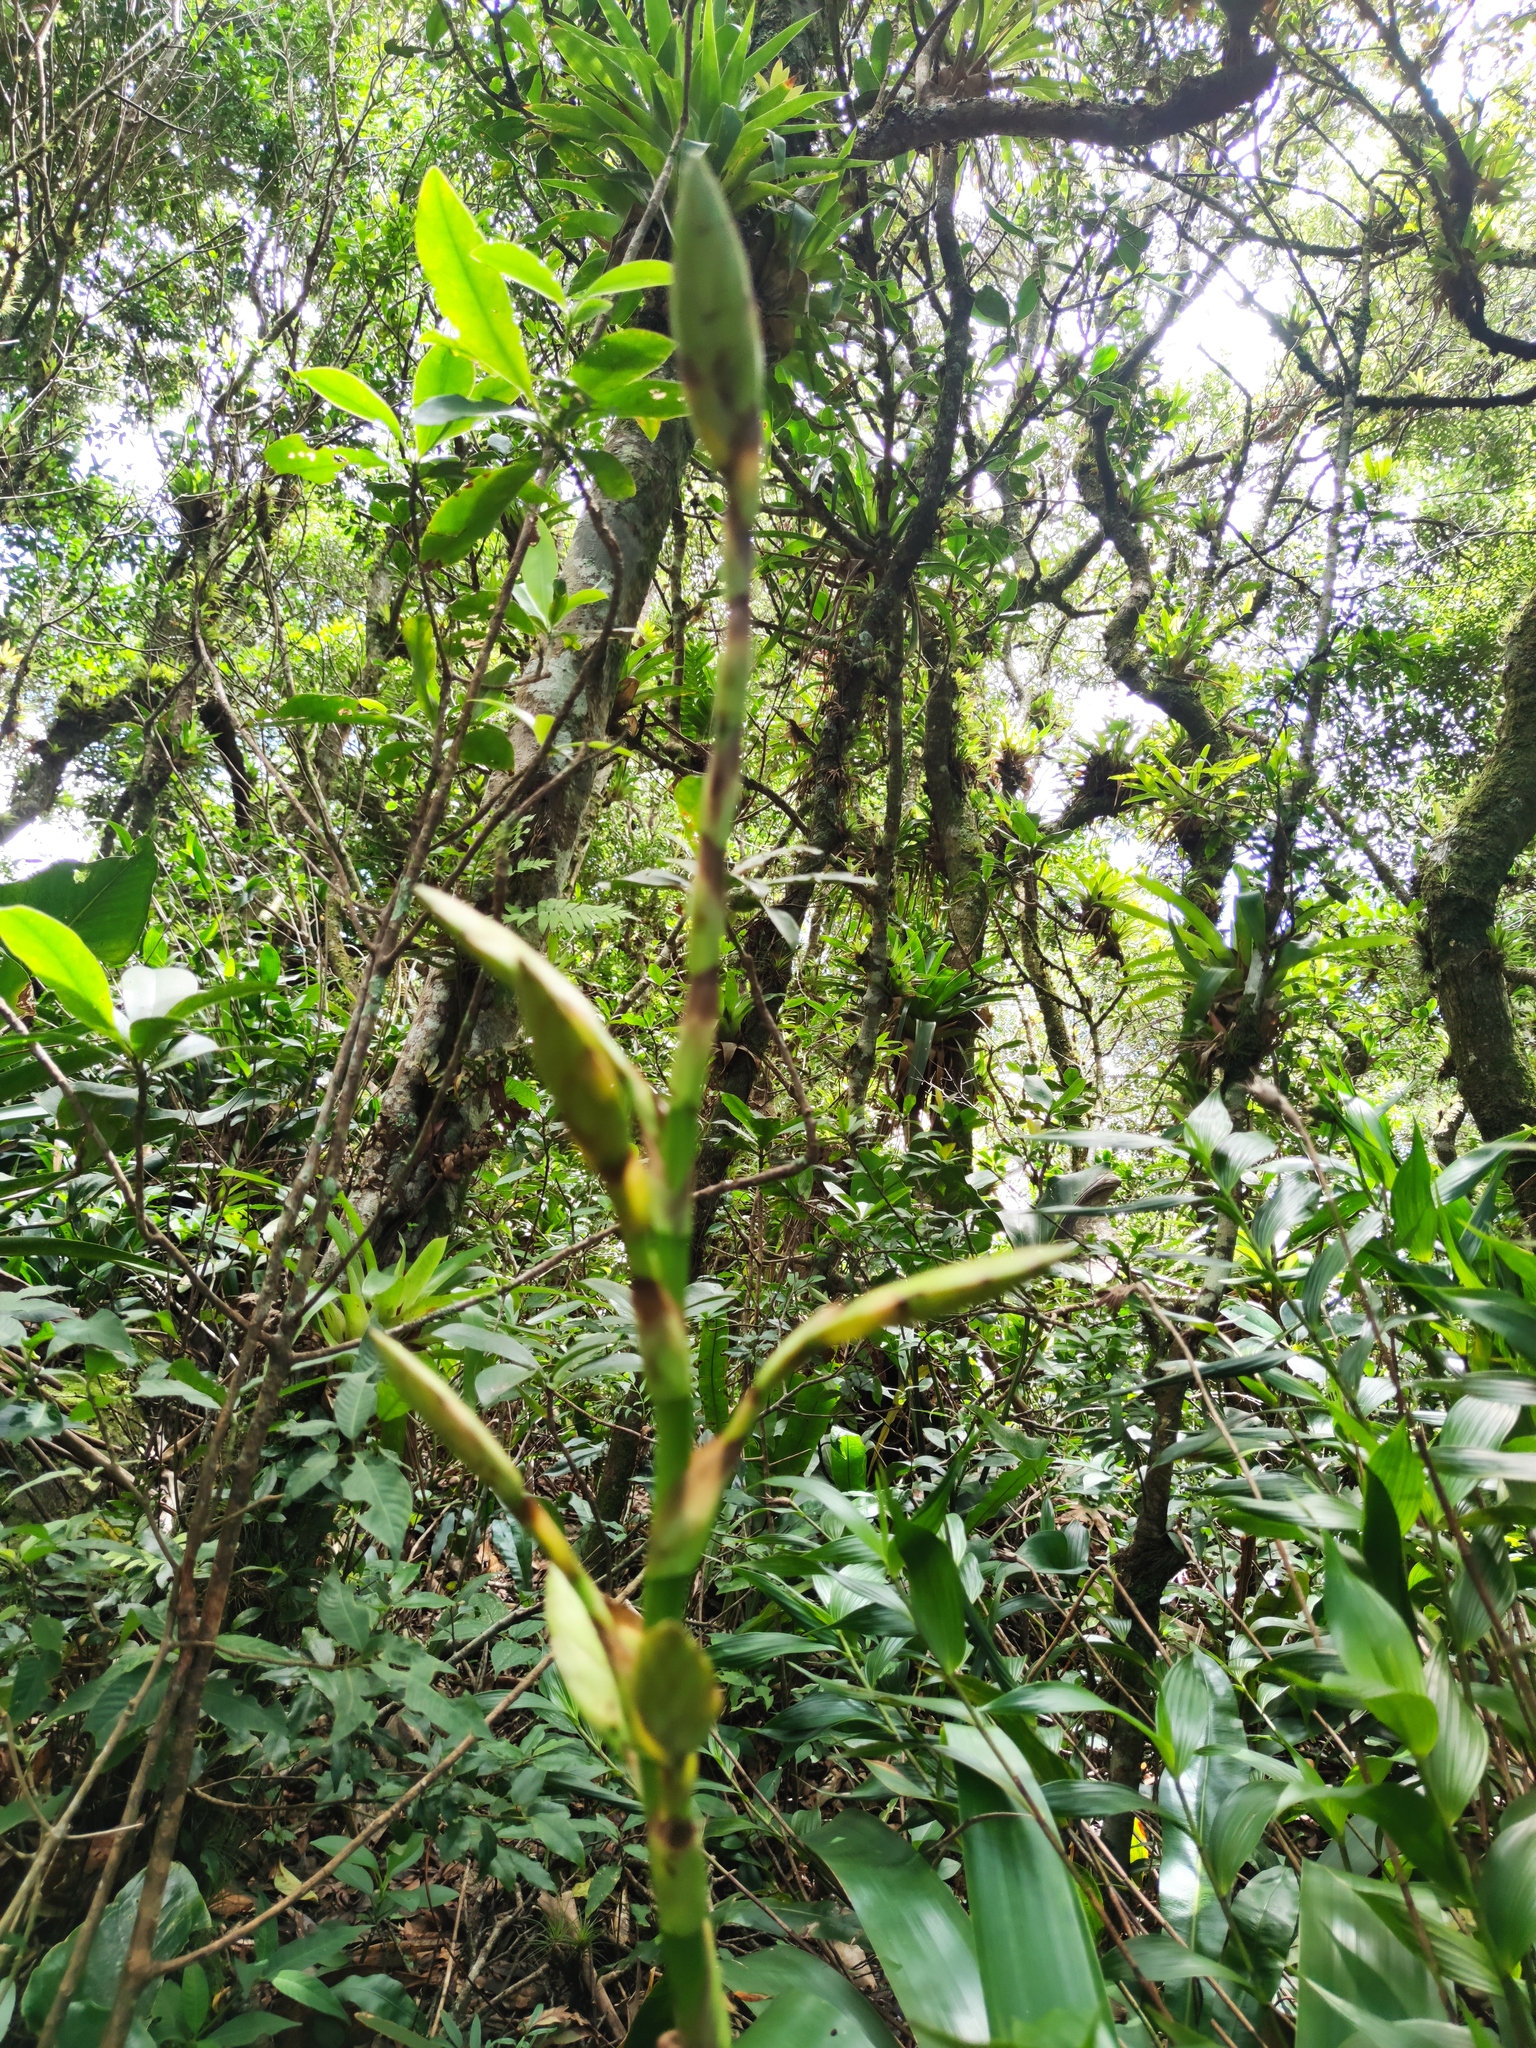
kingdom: Plantae
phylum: Tracheophyta
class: Liliopsida
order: Poales
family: Bromeliaceae
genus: Werauhia
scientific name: Werauhia werckleana
